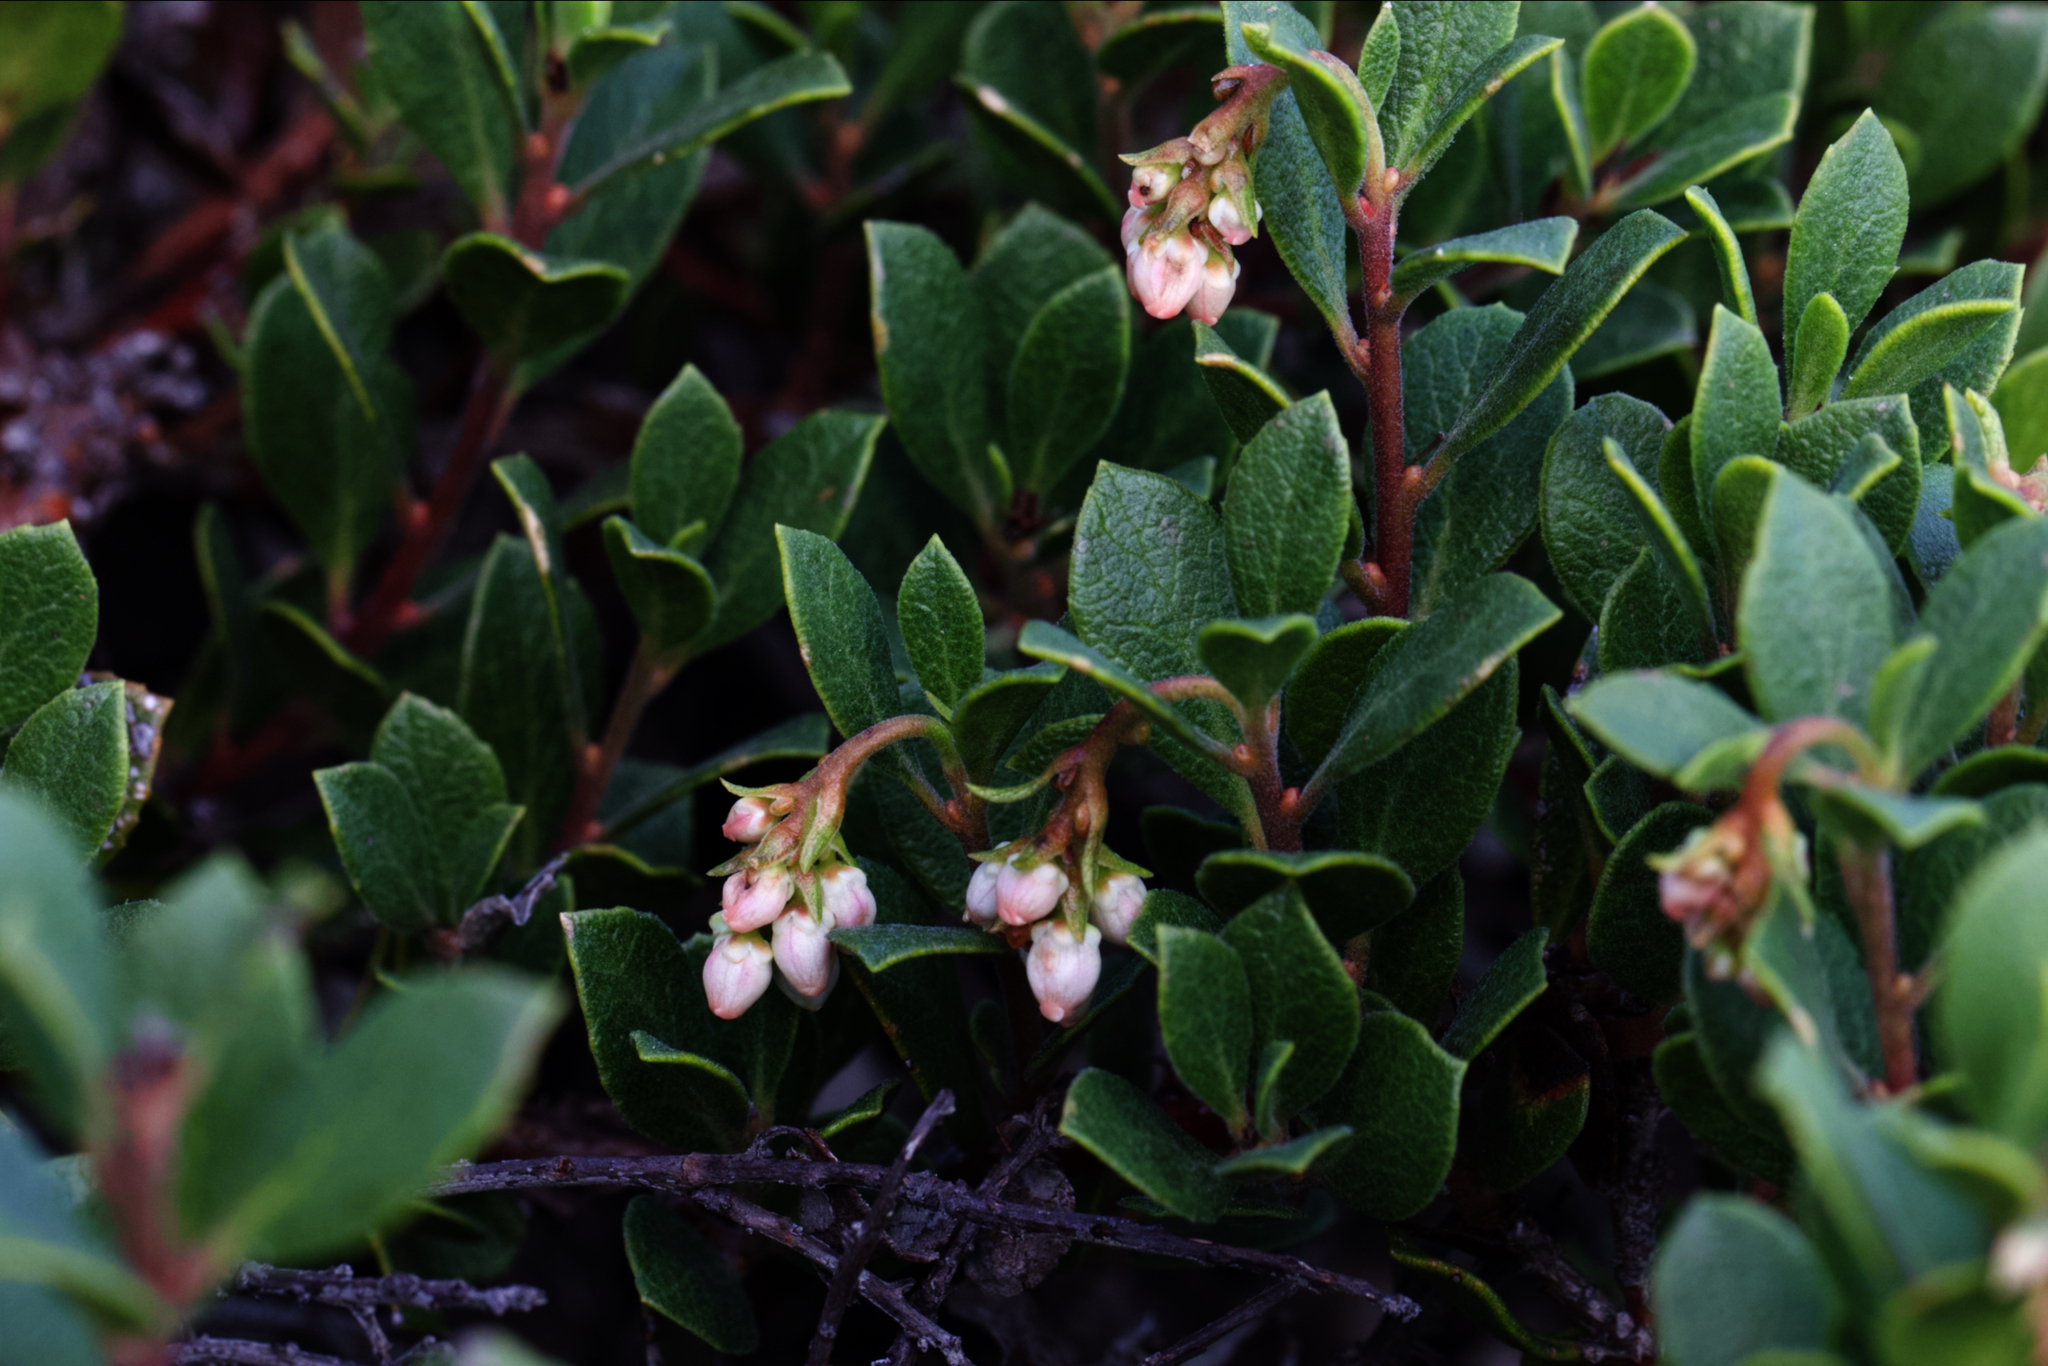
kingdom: Plantae
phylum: Tracheophyta
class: Magnoliopsida
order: Ericales
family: Ericaceae
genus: Arctostaphylos
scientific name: Arctostaphylos pacifica
